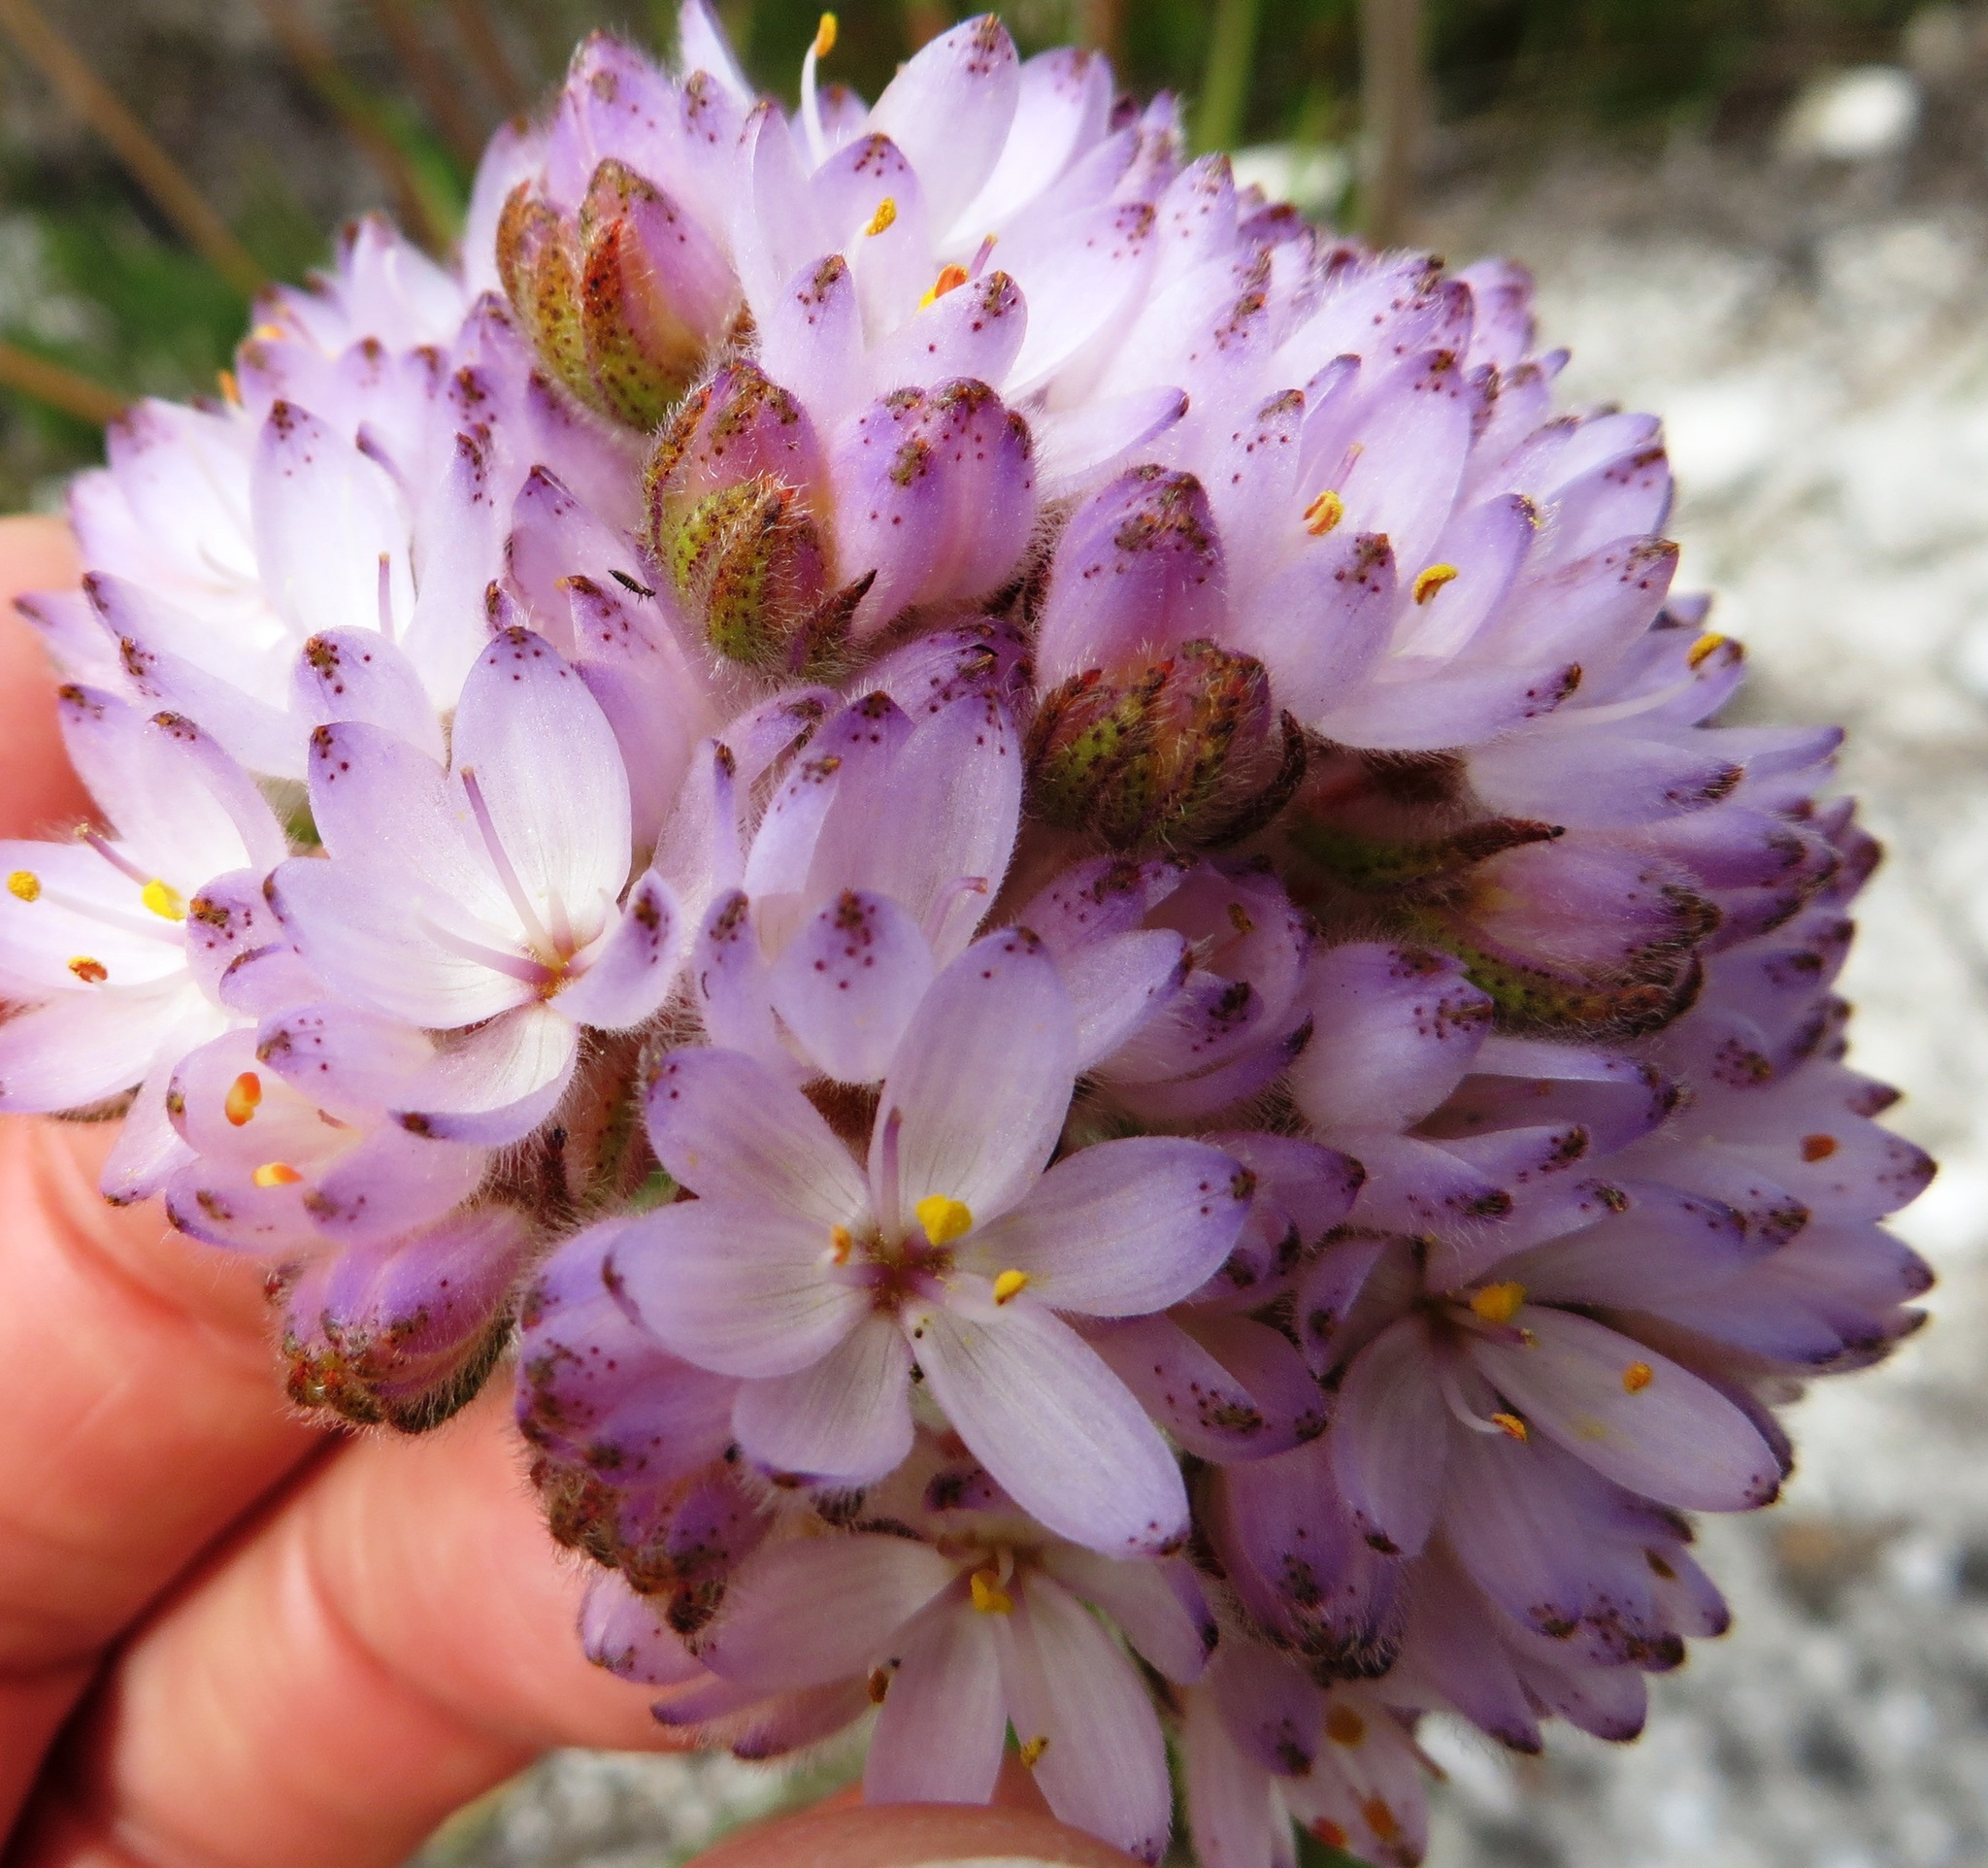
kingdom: Plantae
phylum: Tracheophyta
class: Liliopsida
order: Commelinales
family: Haemodoraceae
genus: Dilatris
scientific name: Dilatris pillansii
